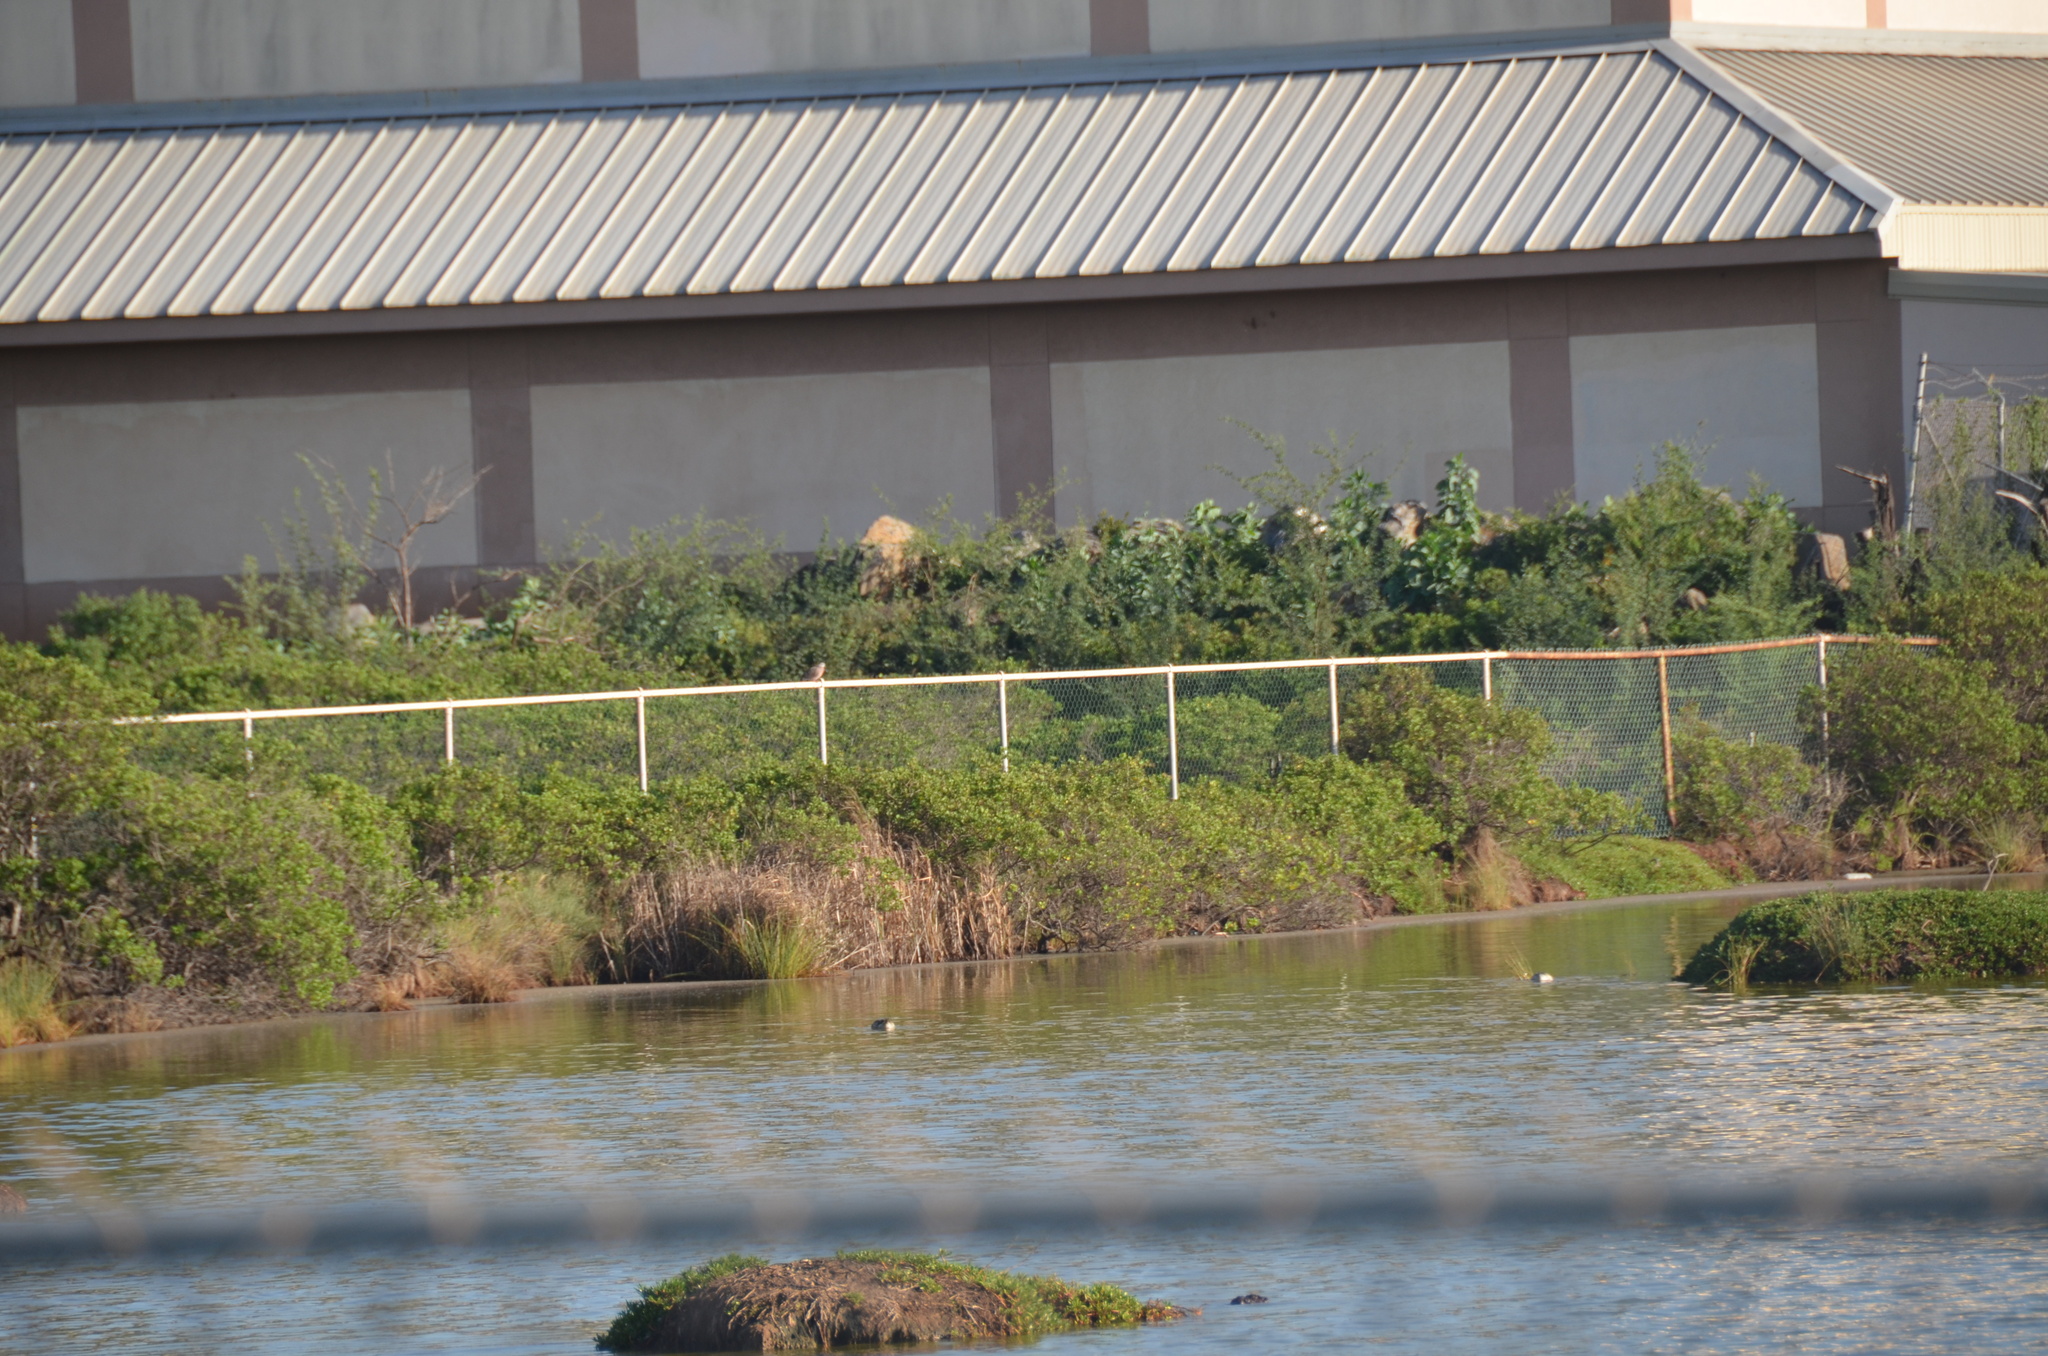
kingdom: Animalia
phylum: Chordata
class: Aves
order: Anseriformes
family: Anatidae
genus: Anas
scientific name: Anas acuta
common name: Northern pintail
